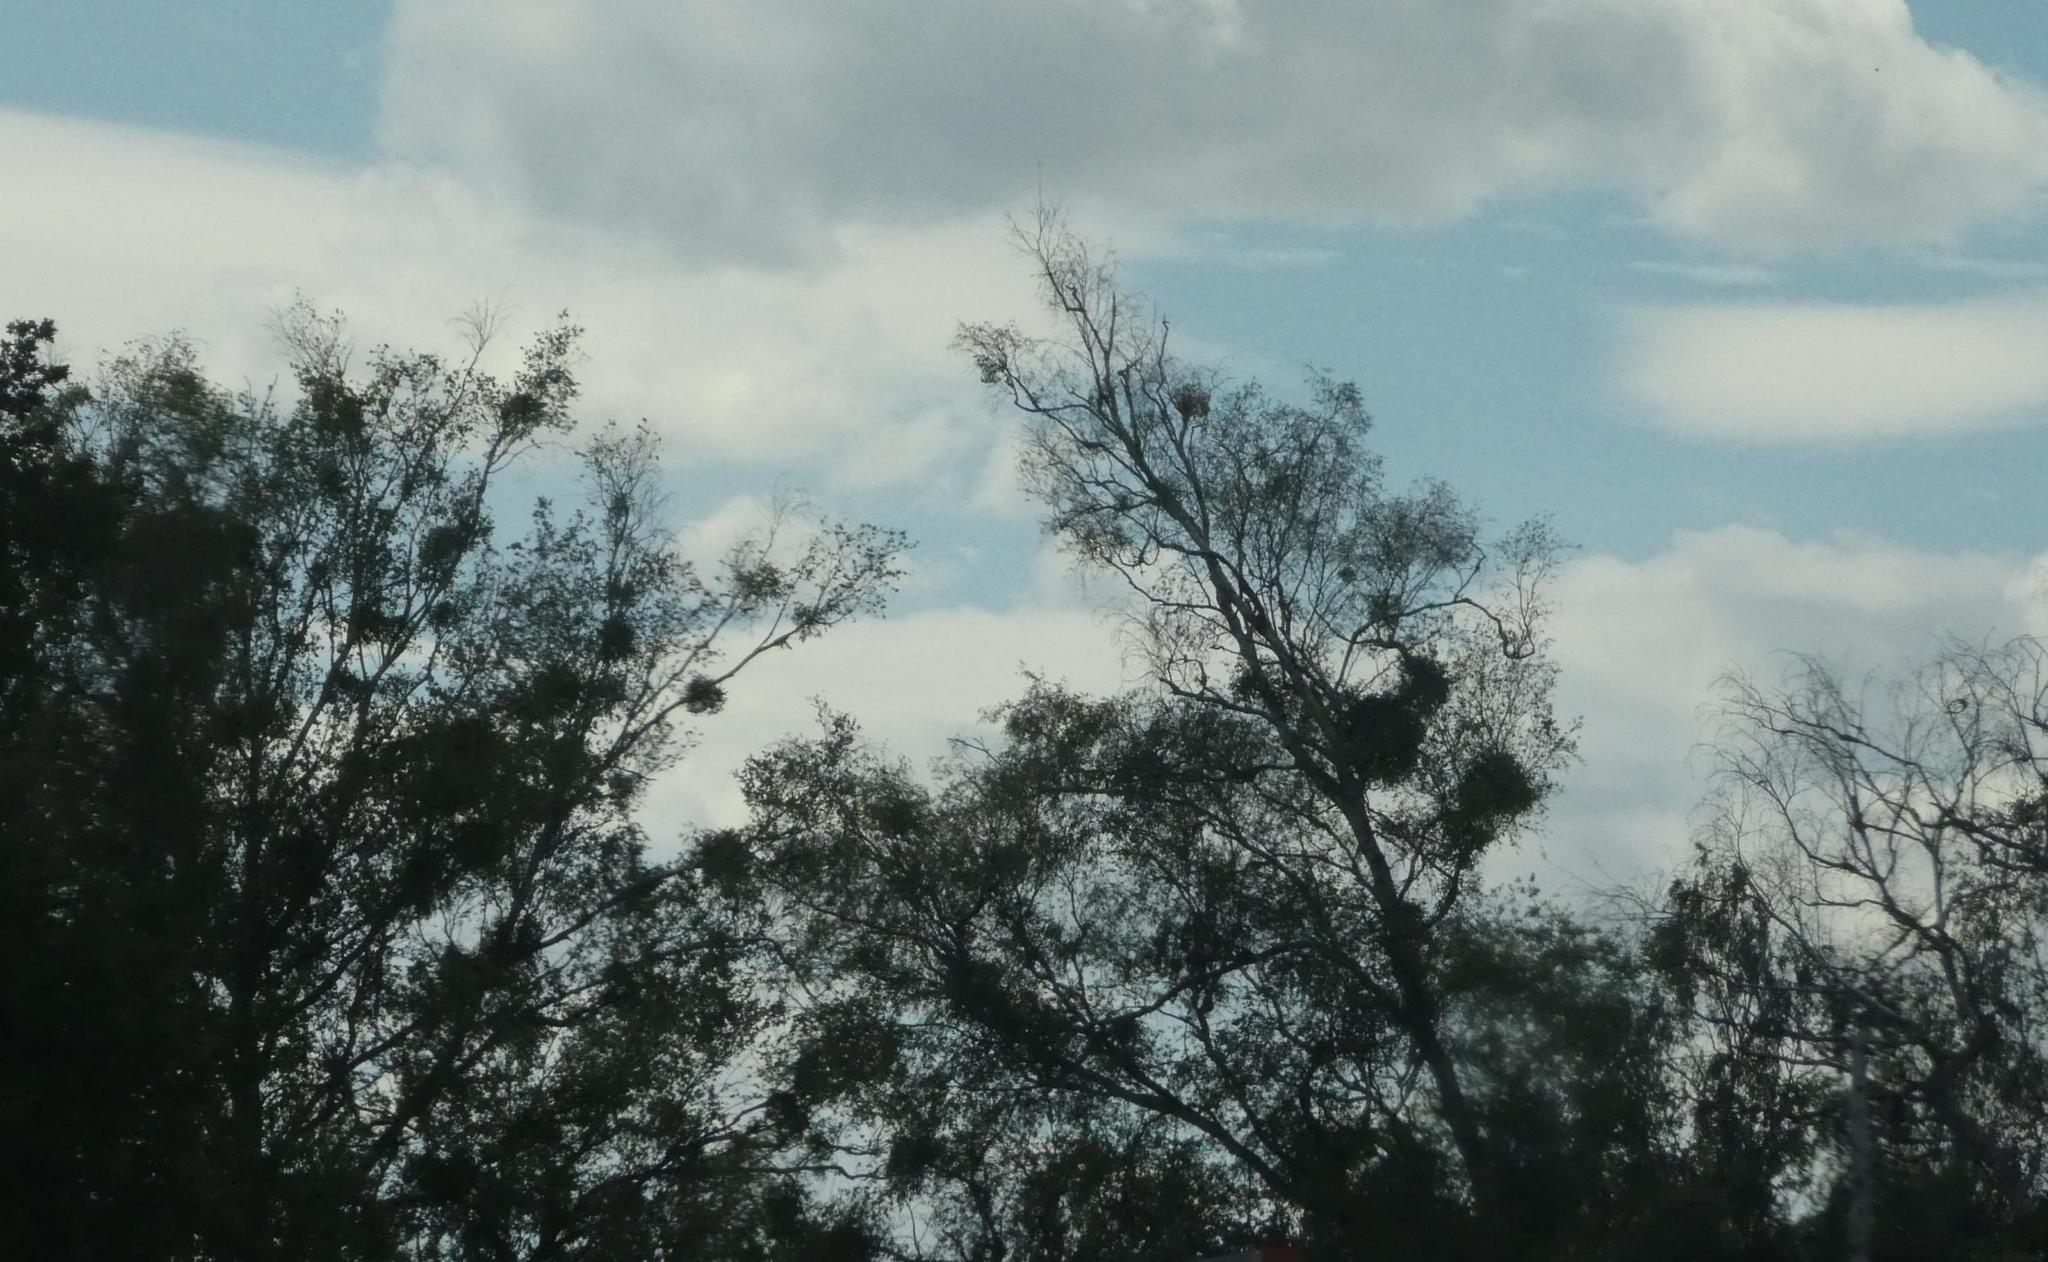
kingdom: Plantae
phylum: Tracheophyta
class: Magnoliopsida
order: Santalales
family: Viscaceae
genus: Viscum
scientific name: Viscum album
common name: Mistletoe
